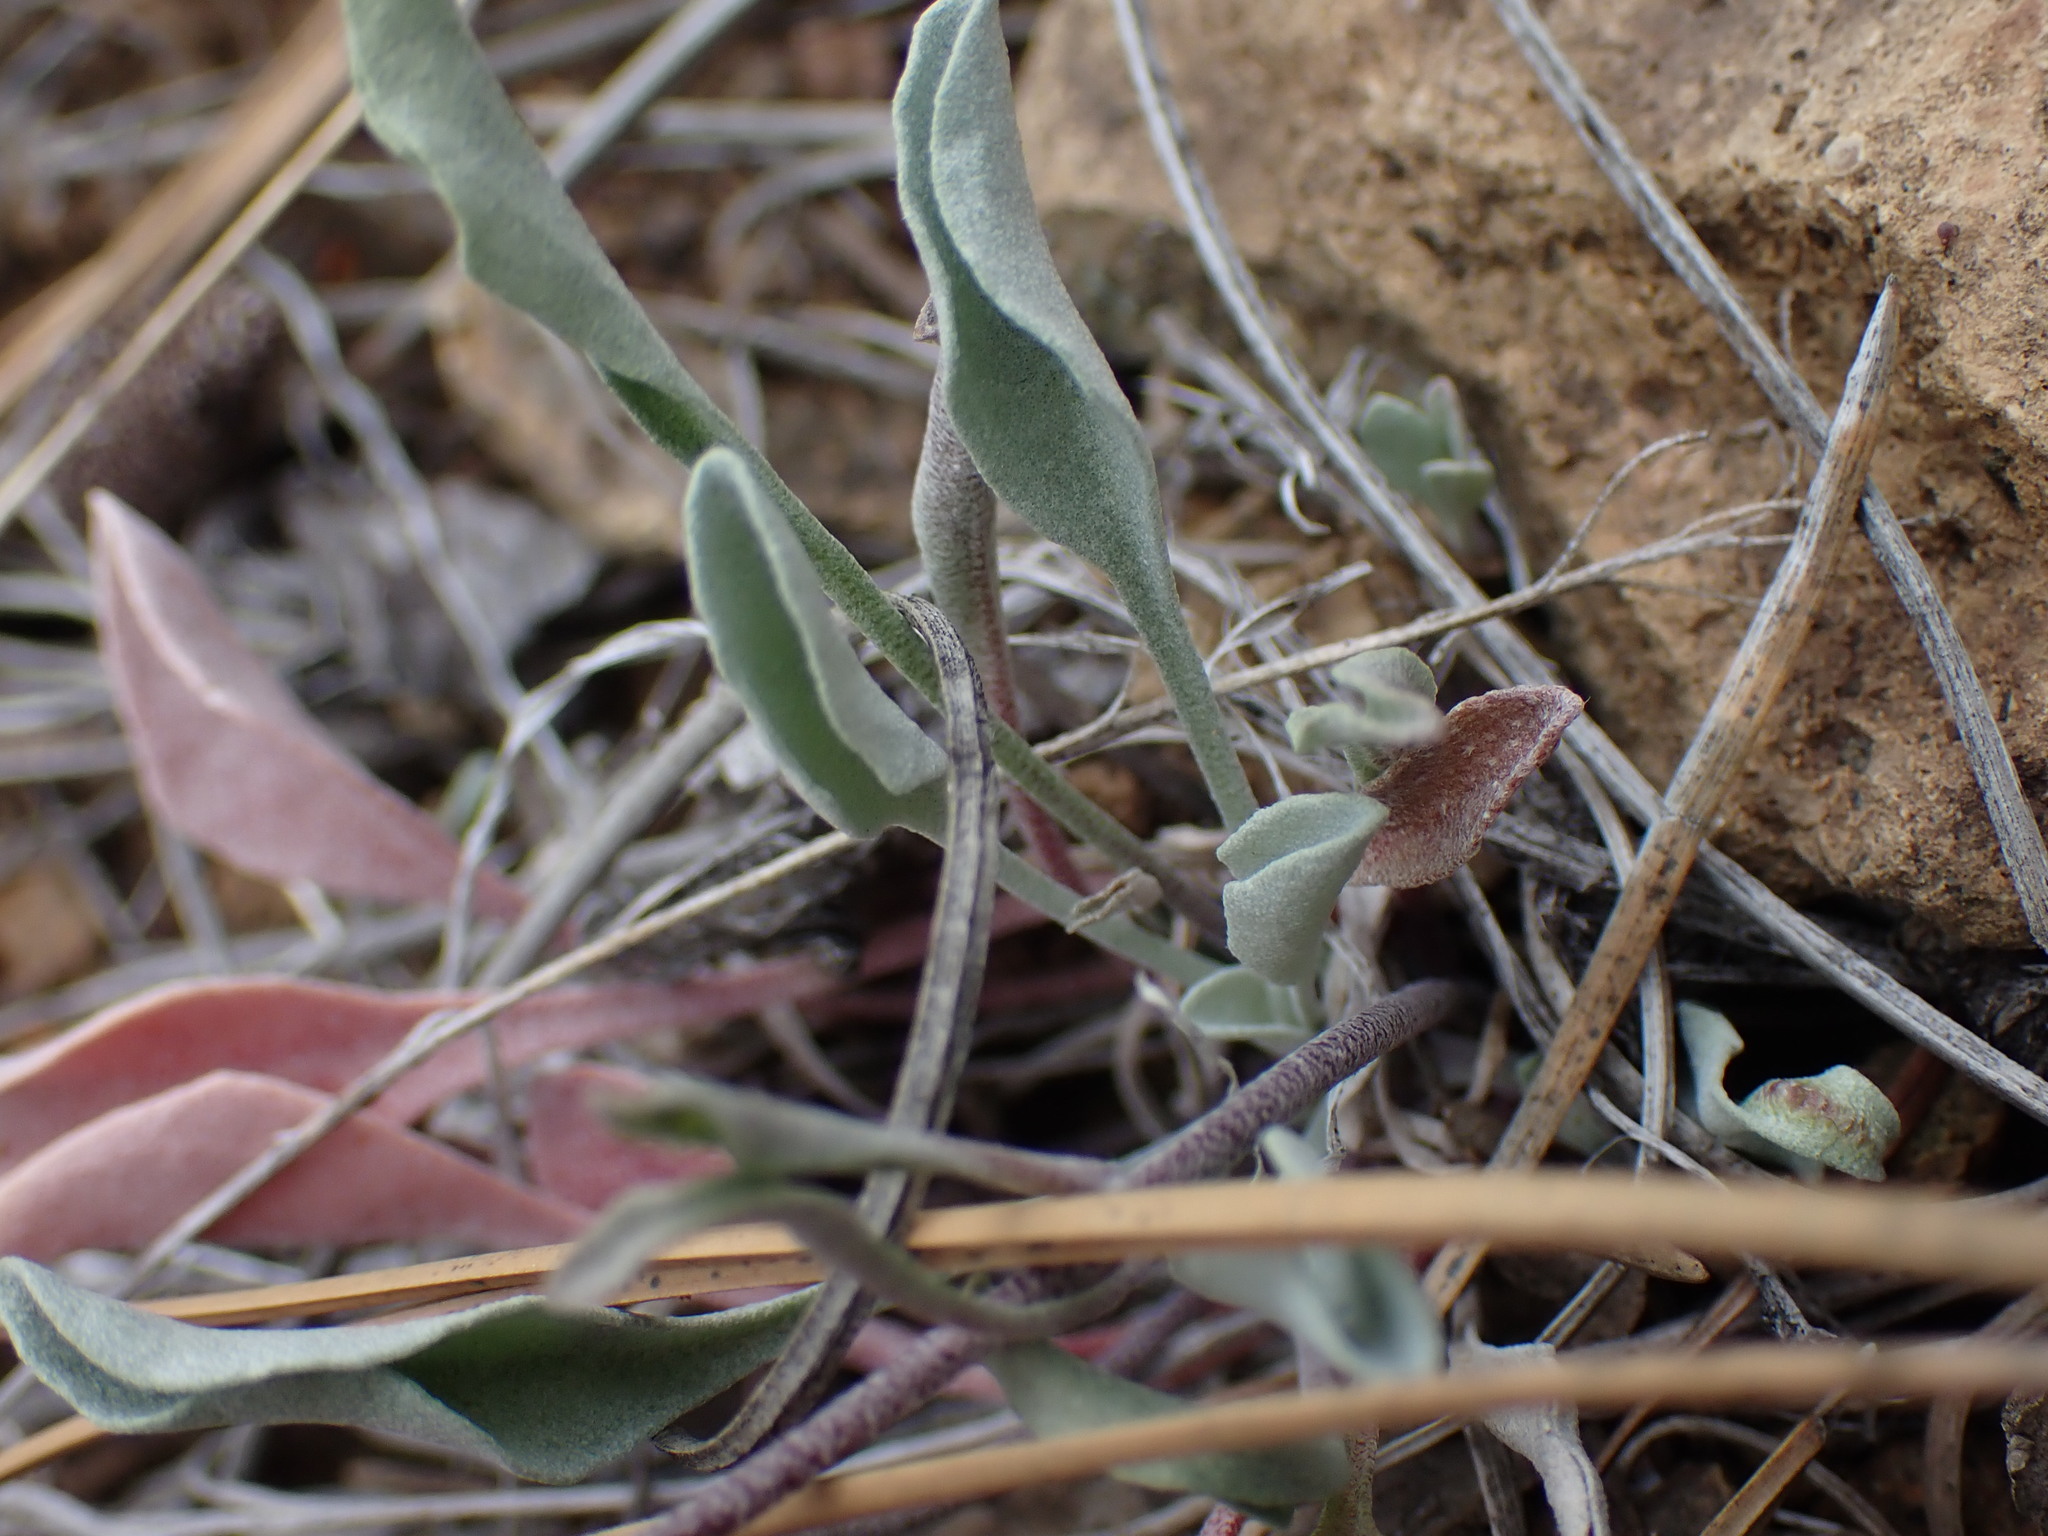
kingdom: Plantae
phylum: Tracheophyta
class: Magnoliopsida
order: Brassicales
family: Brassicaceae
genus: Physaria
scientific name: Physaria douglasii
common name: Douglas's bladderpod
